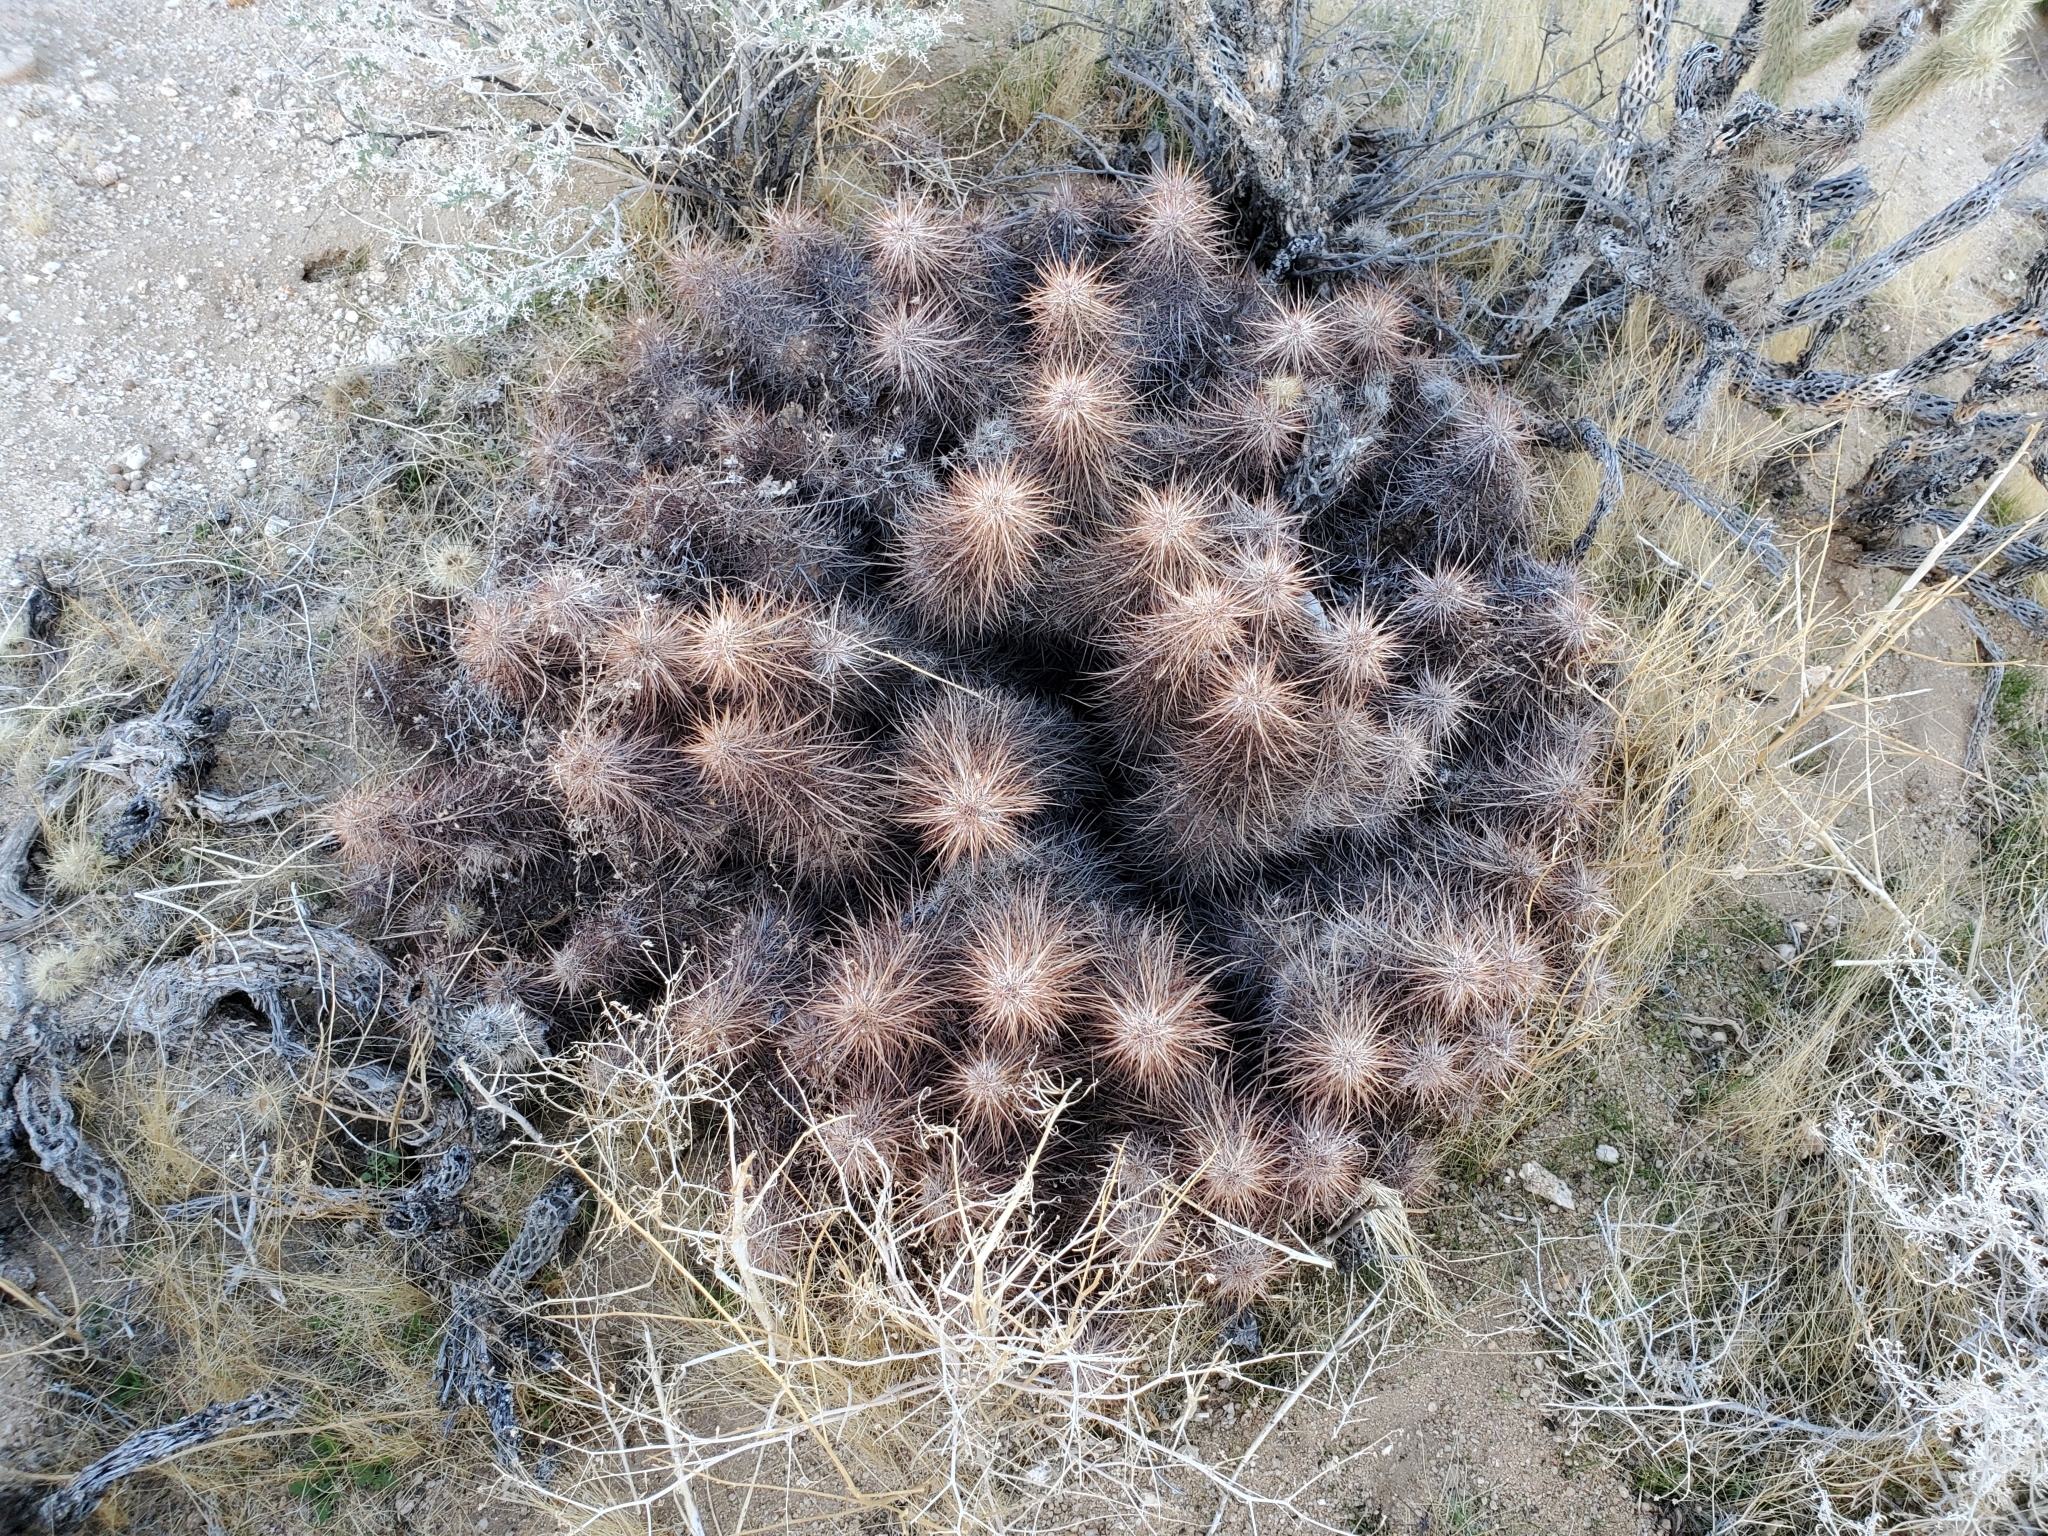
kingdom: Plantae
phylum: Tracheophyta
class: Magnoliopsida
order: Caryophyllales
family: Cactaceae
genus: Echinocereus
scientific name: Echinocereus engelmannii
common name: Engelmann's hedgehog cactus
